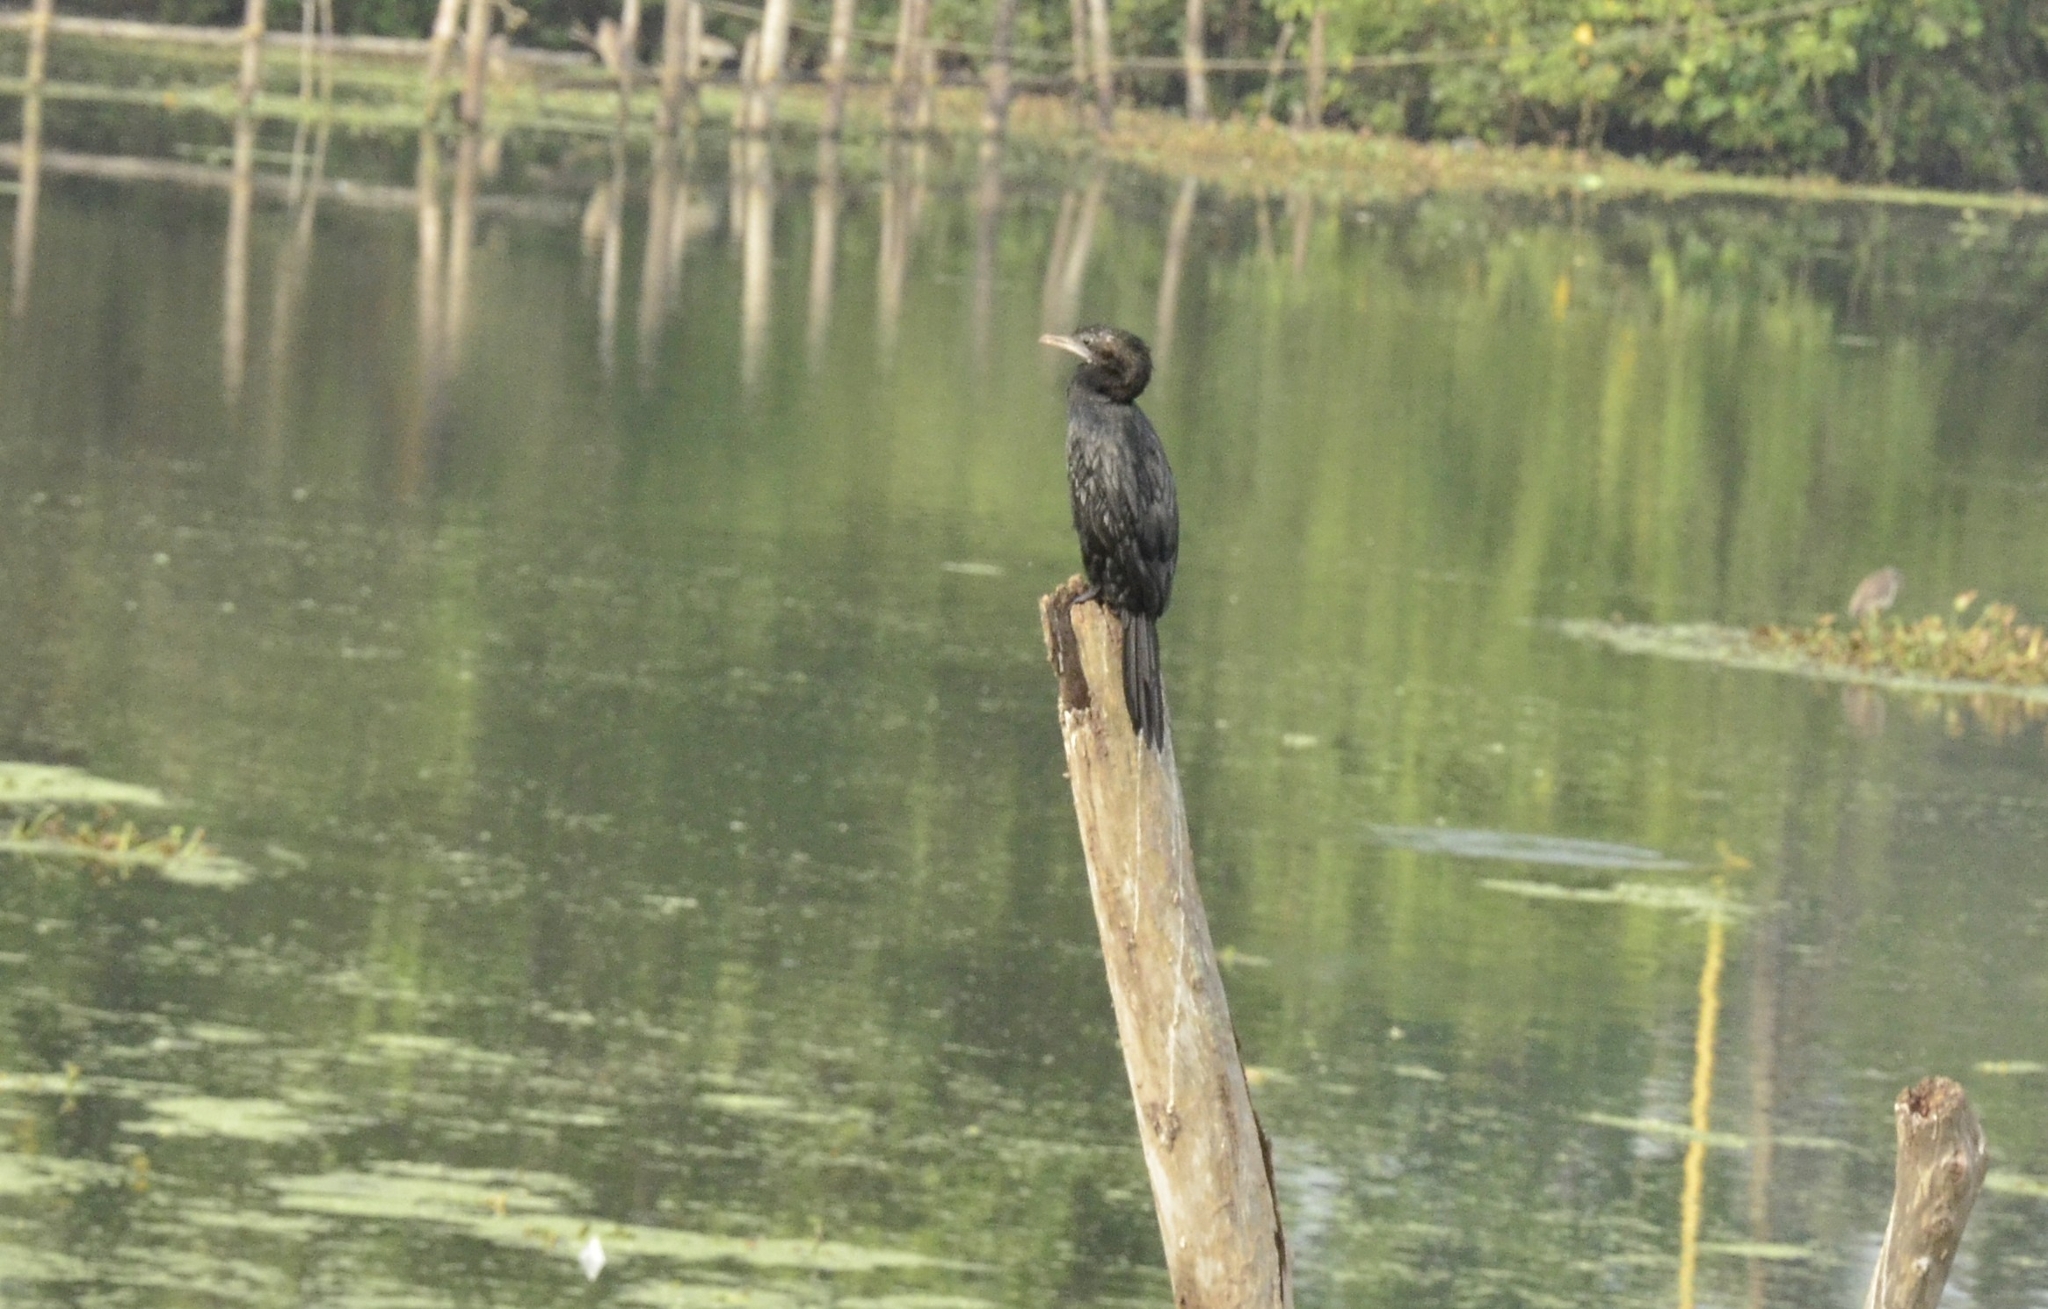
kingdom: Animalia
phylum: Chordata
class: Aves
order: Suliformes
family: Phalacrocoracidae
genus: Microcarbo
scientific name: Microcarbo niger
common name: Little cormorant
